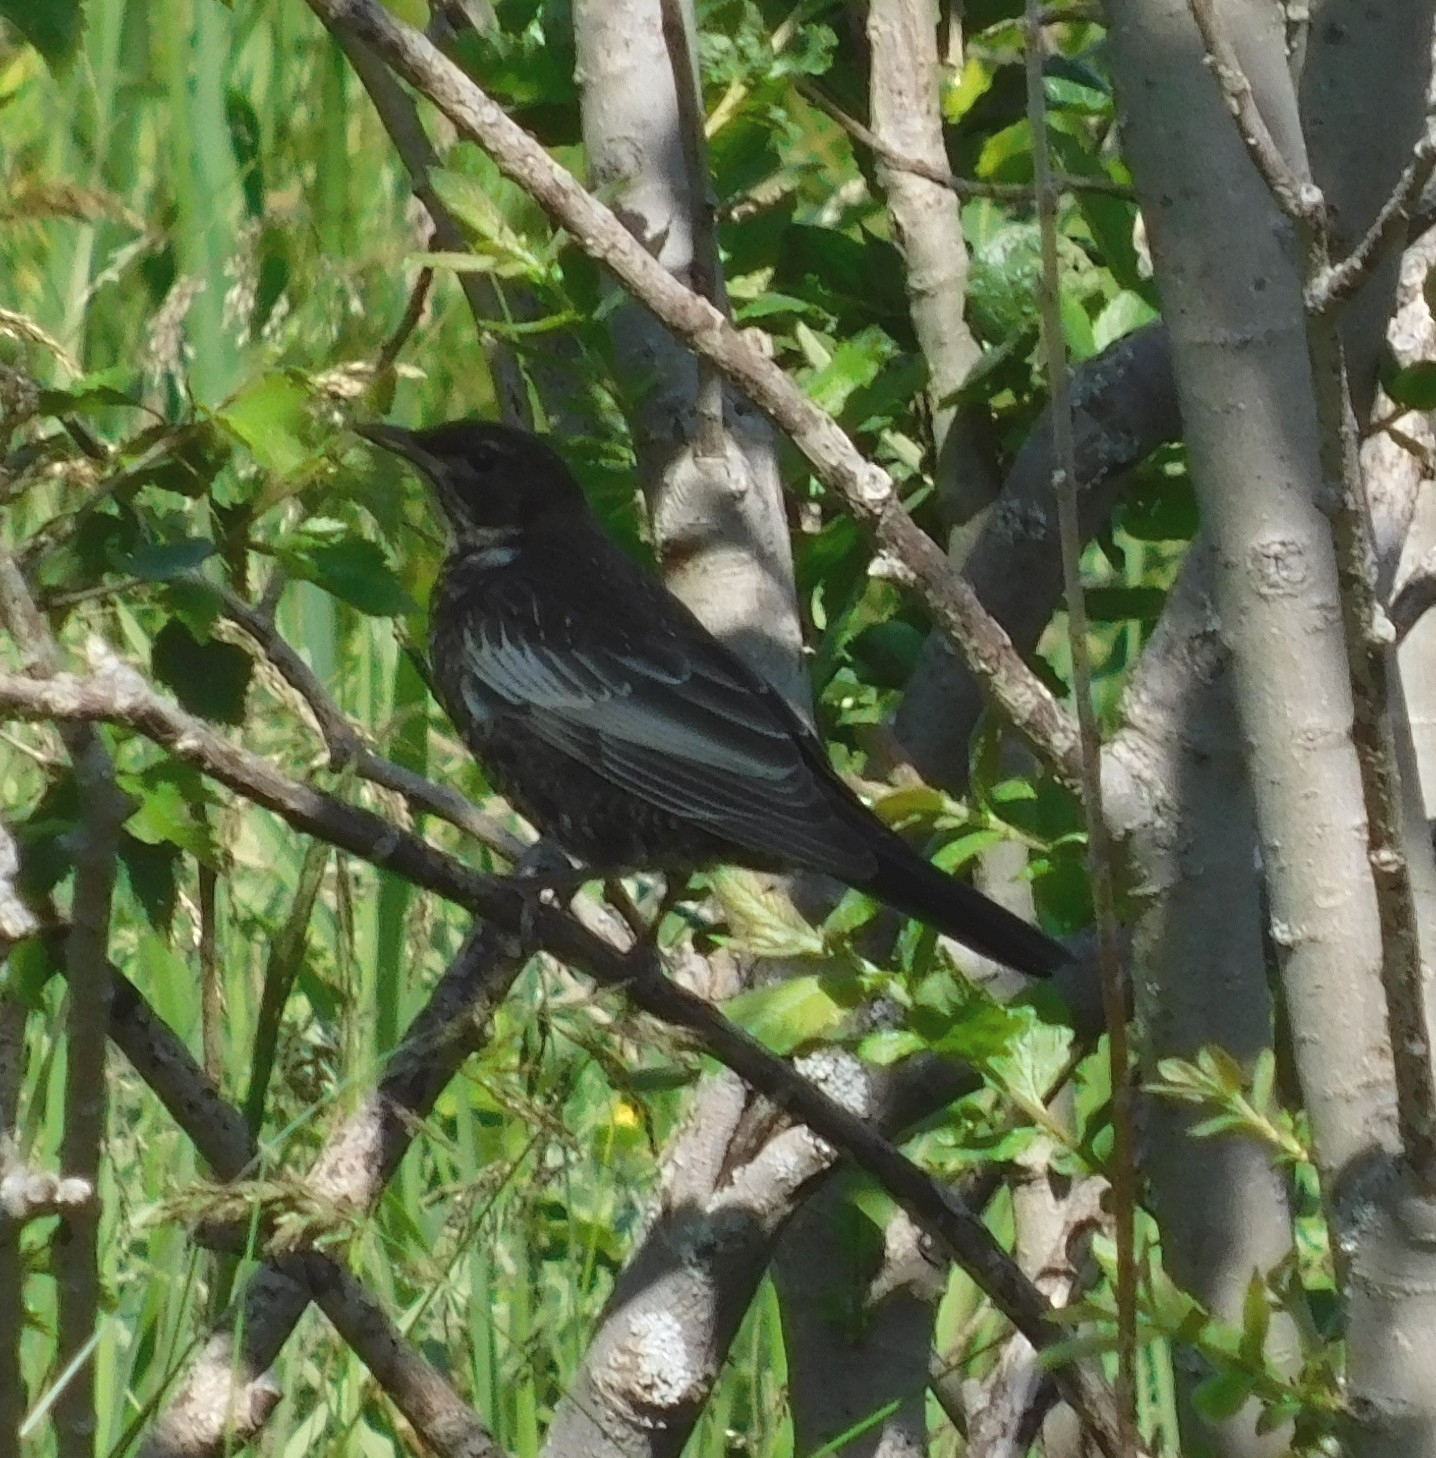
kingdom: Animalia
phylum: Chordata
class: Aves
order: Passeriformes
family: Turdidae
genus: Turdus
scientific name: Turdus torquatus
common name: Ring ouzel
